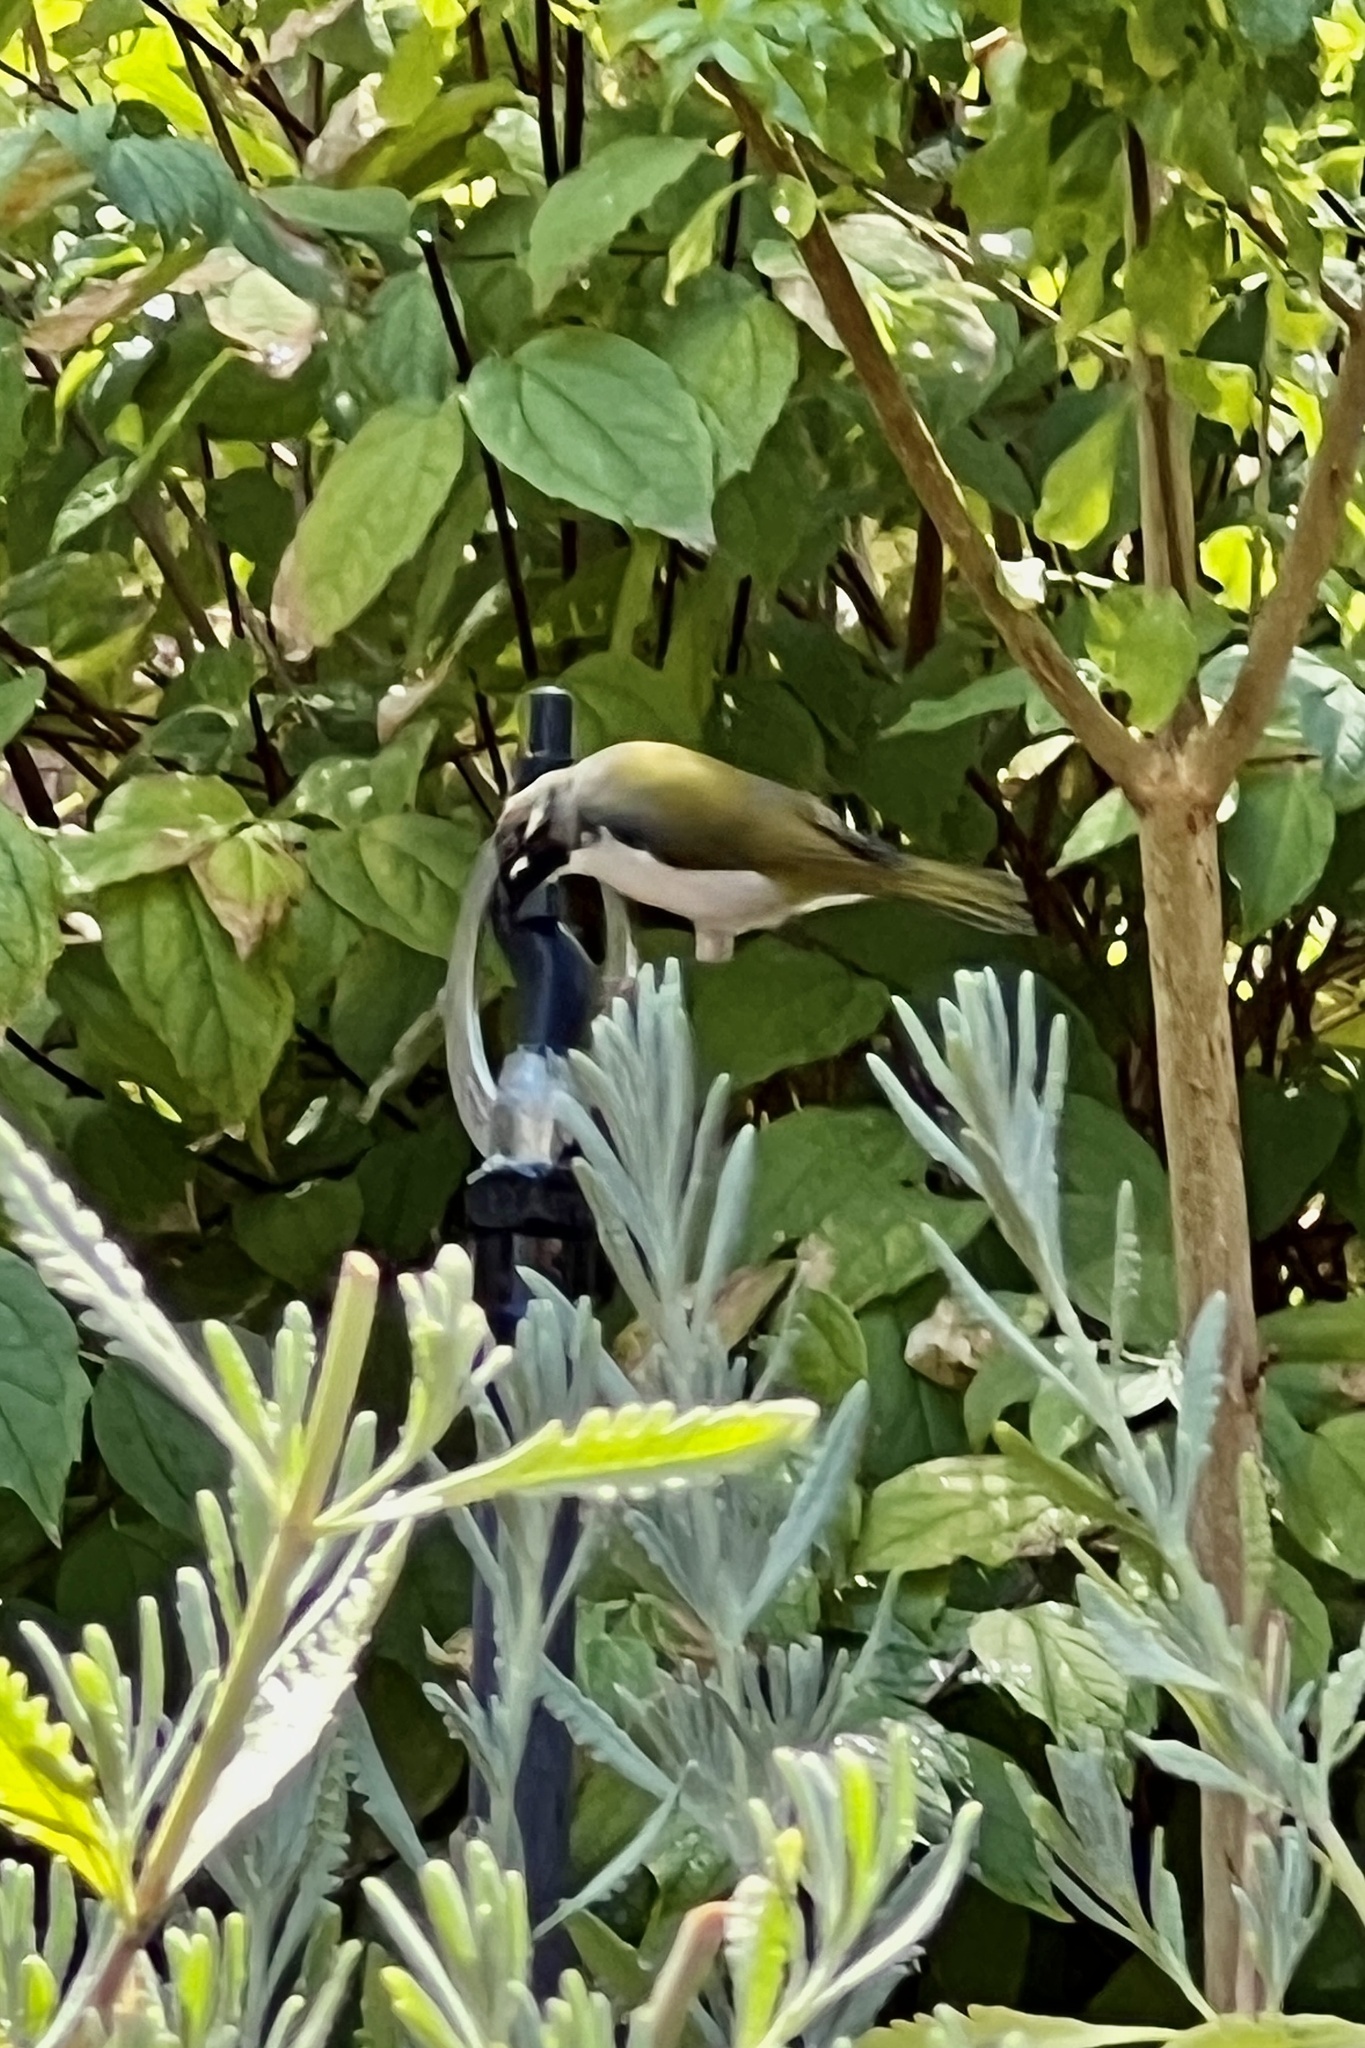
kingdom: Animalia
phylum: Chordata
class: Aves
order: Passeriformes
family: Meliphagidae
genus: Melithreptus
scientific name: Melithreptus chloropsis
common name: Gilbert's honeyeater
